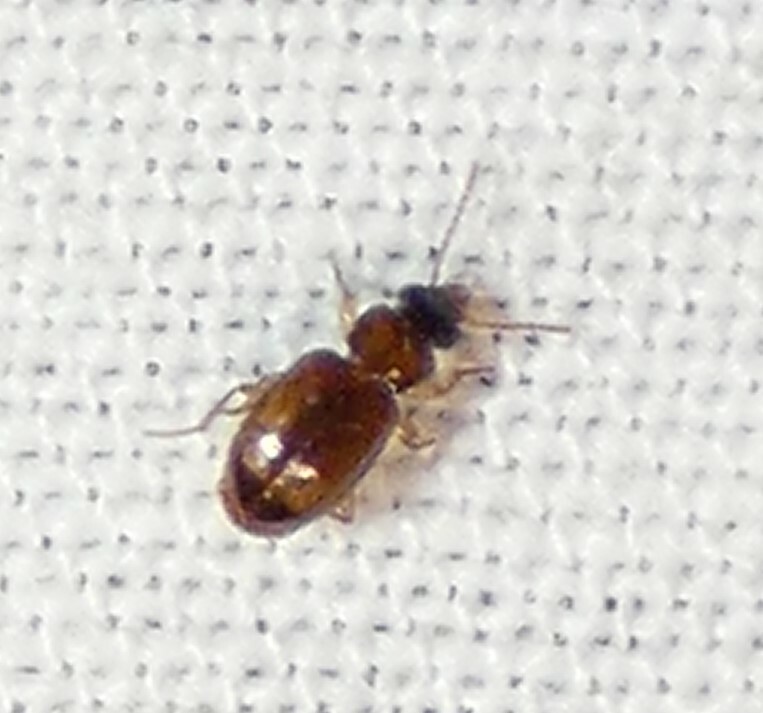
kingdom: Animalia
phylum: Arthropoda
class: Insecta
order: Coleoptera
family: Carabidae
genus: Perigona
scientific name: Perigona nigriceps
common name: Tawny harp ground beetle
